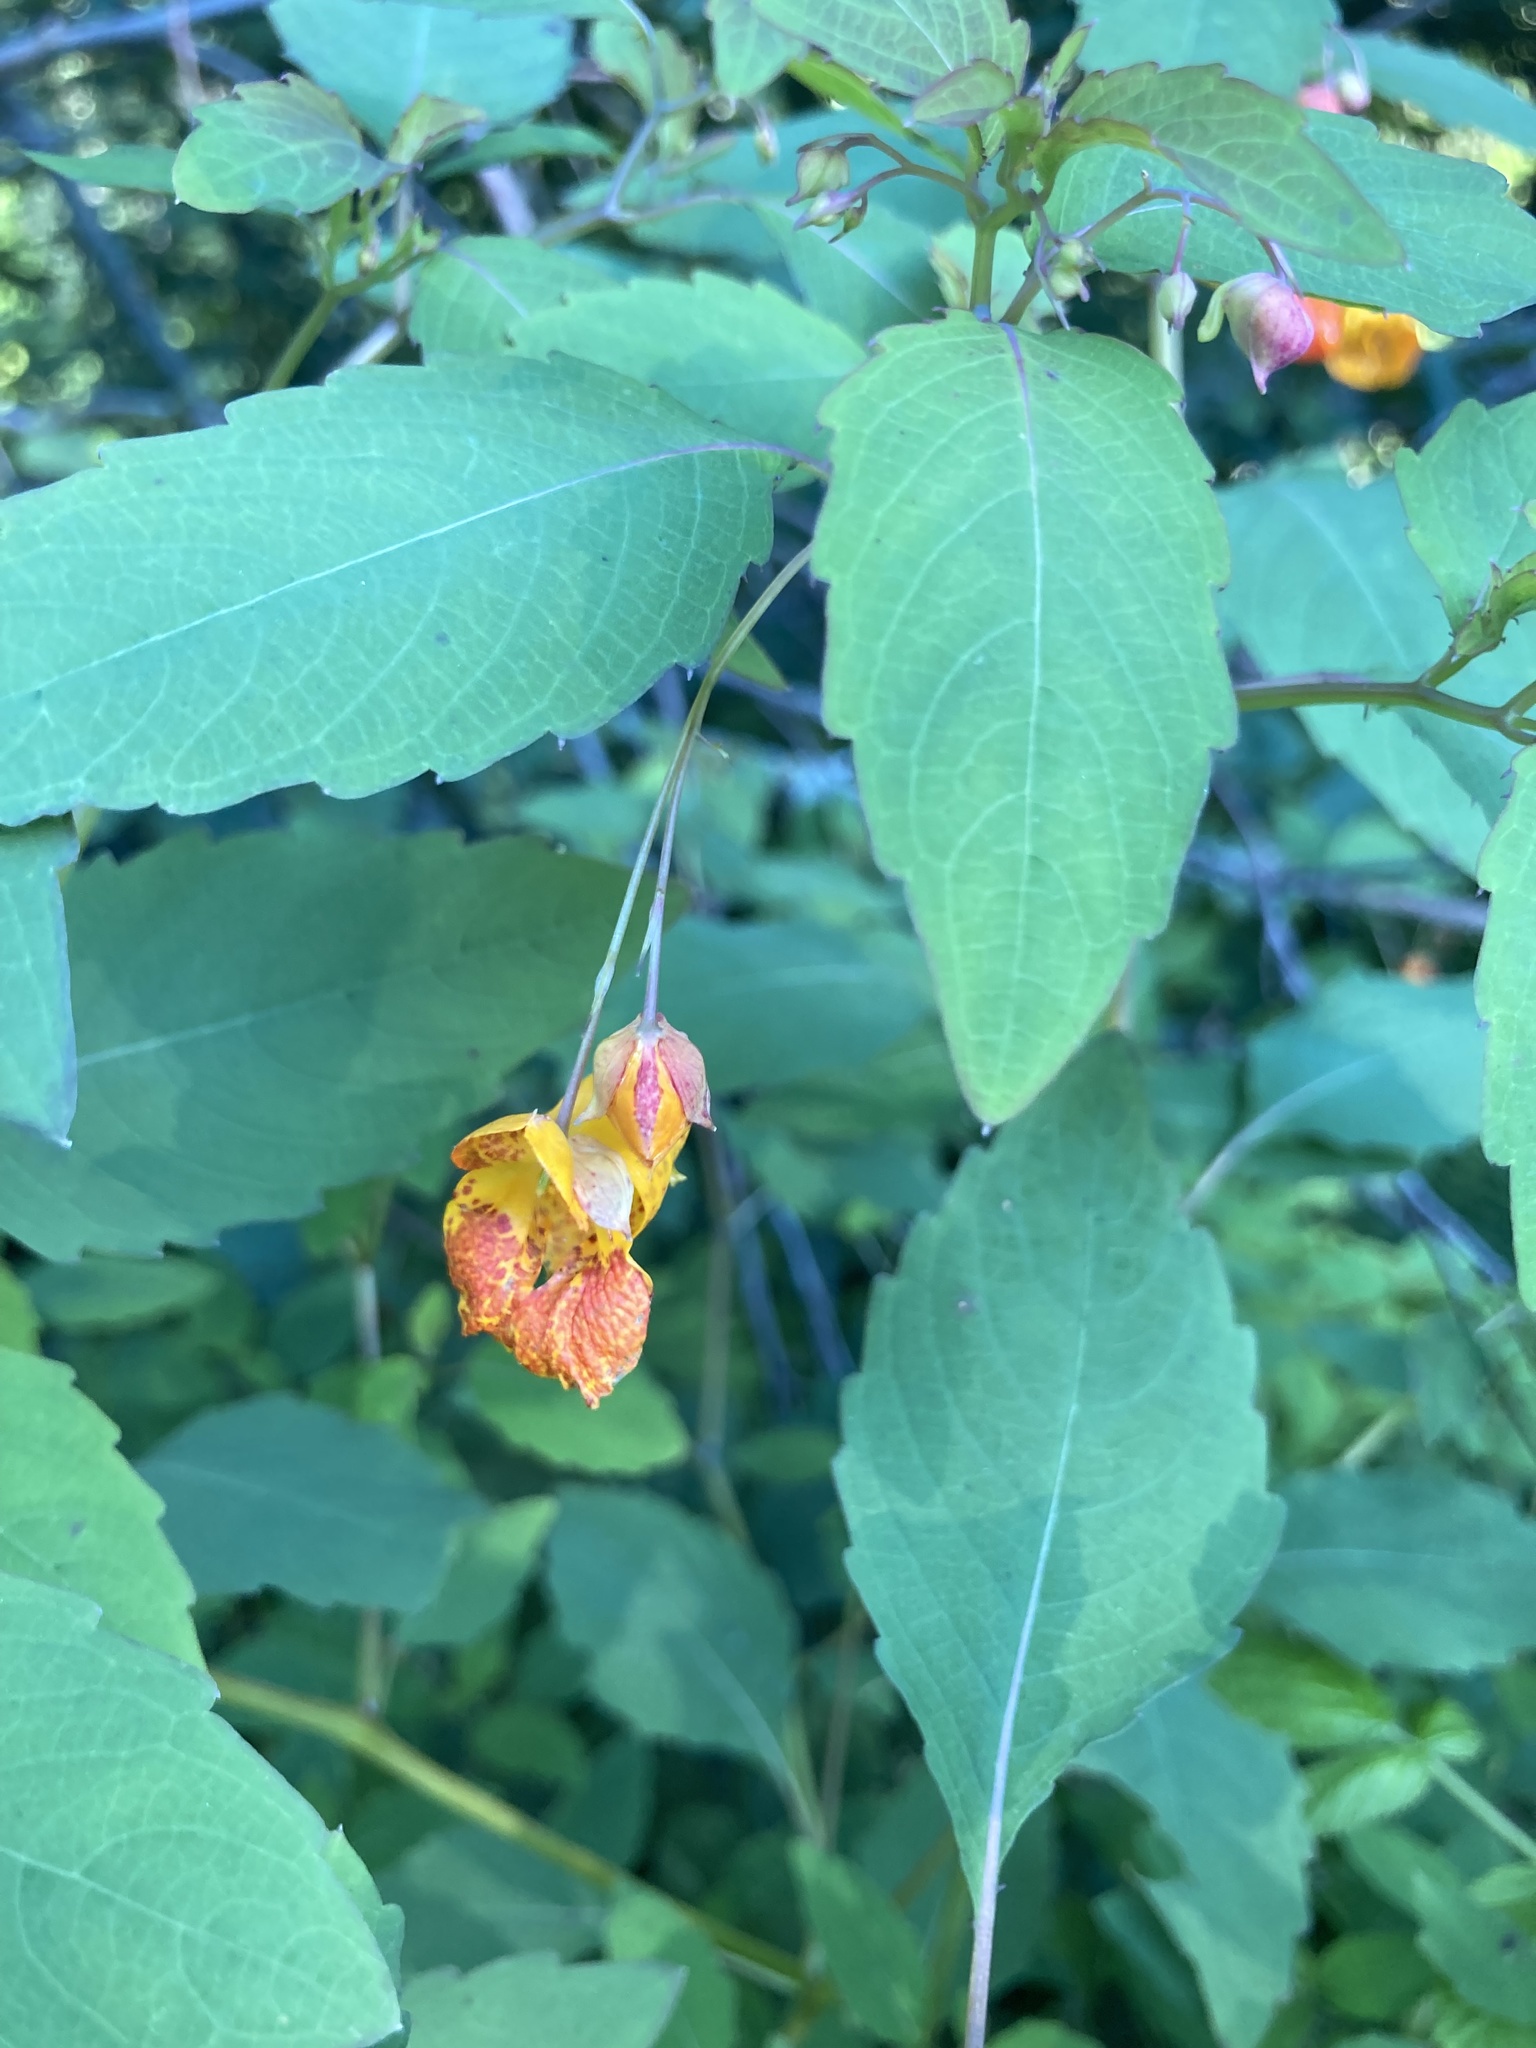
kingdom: Plantae
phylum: Tracheophyta
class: Magnoliopsida
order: Ericales
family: Balsaminaceae
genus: Impatiens
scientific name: Impatiens capensis
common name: Orange balsam
